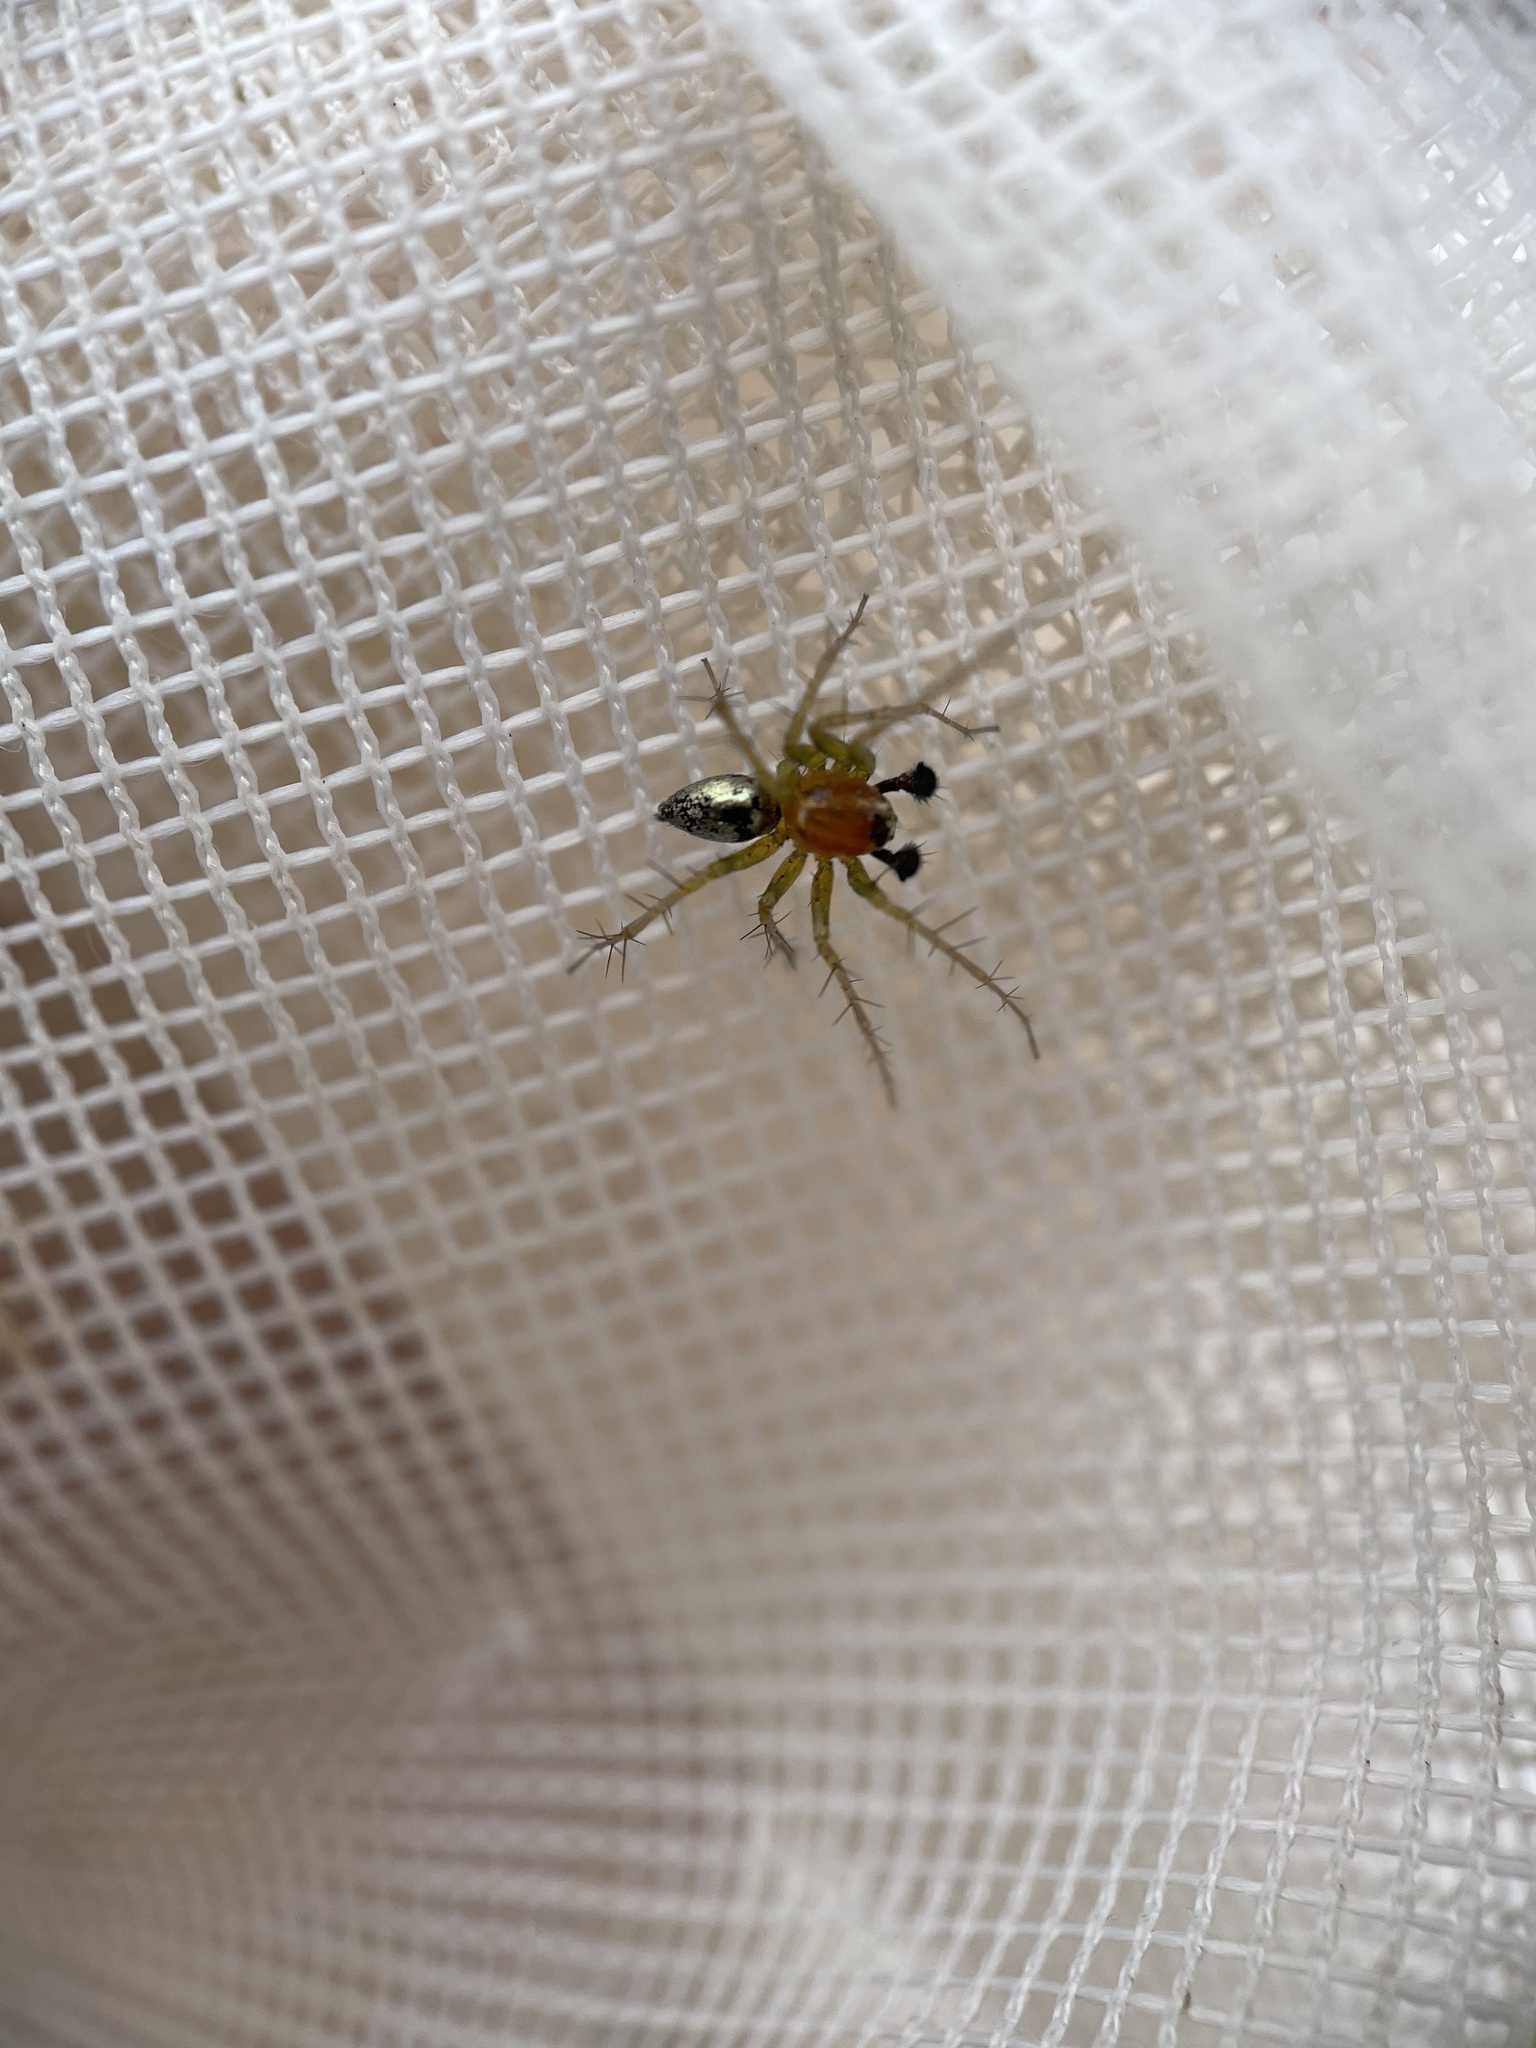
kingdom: Animalia
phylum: Arthropoda
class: Arachnida
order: Araneae
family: Oxyopidae
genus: Oxyopes
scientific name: Oxyopes salticus
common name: Lynx spiders
